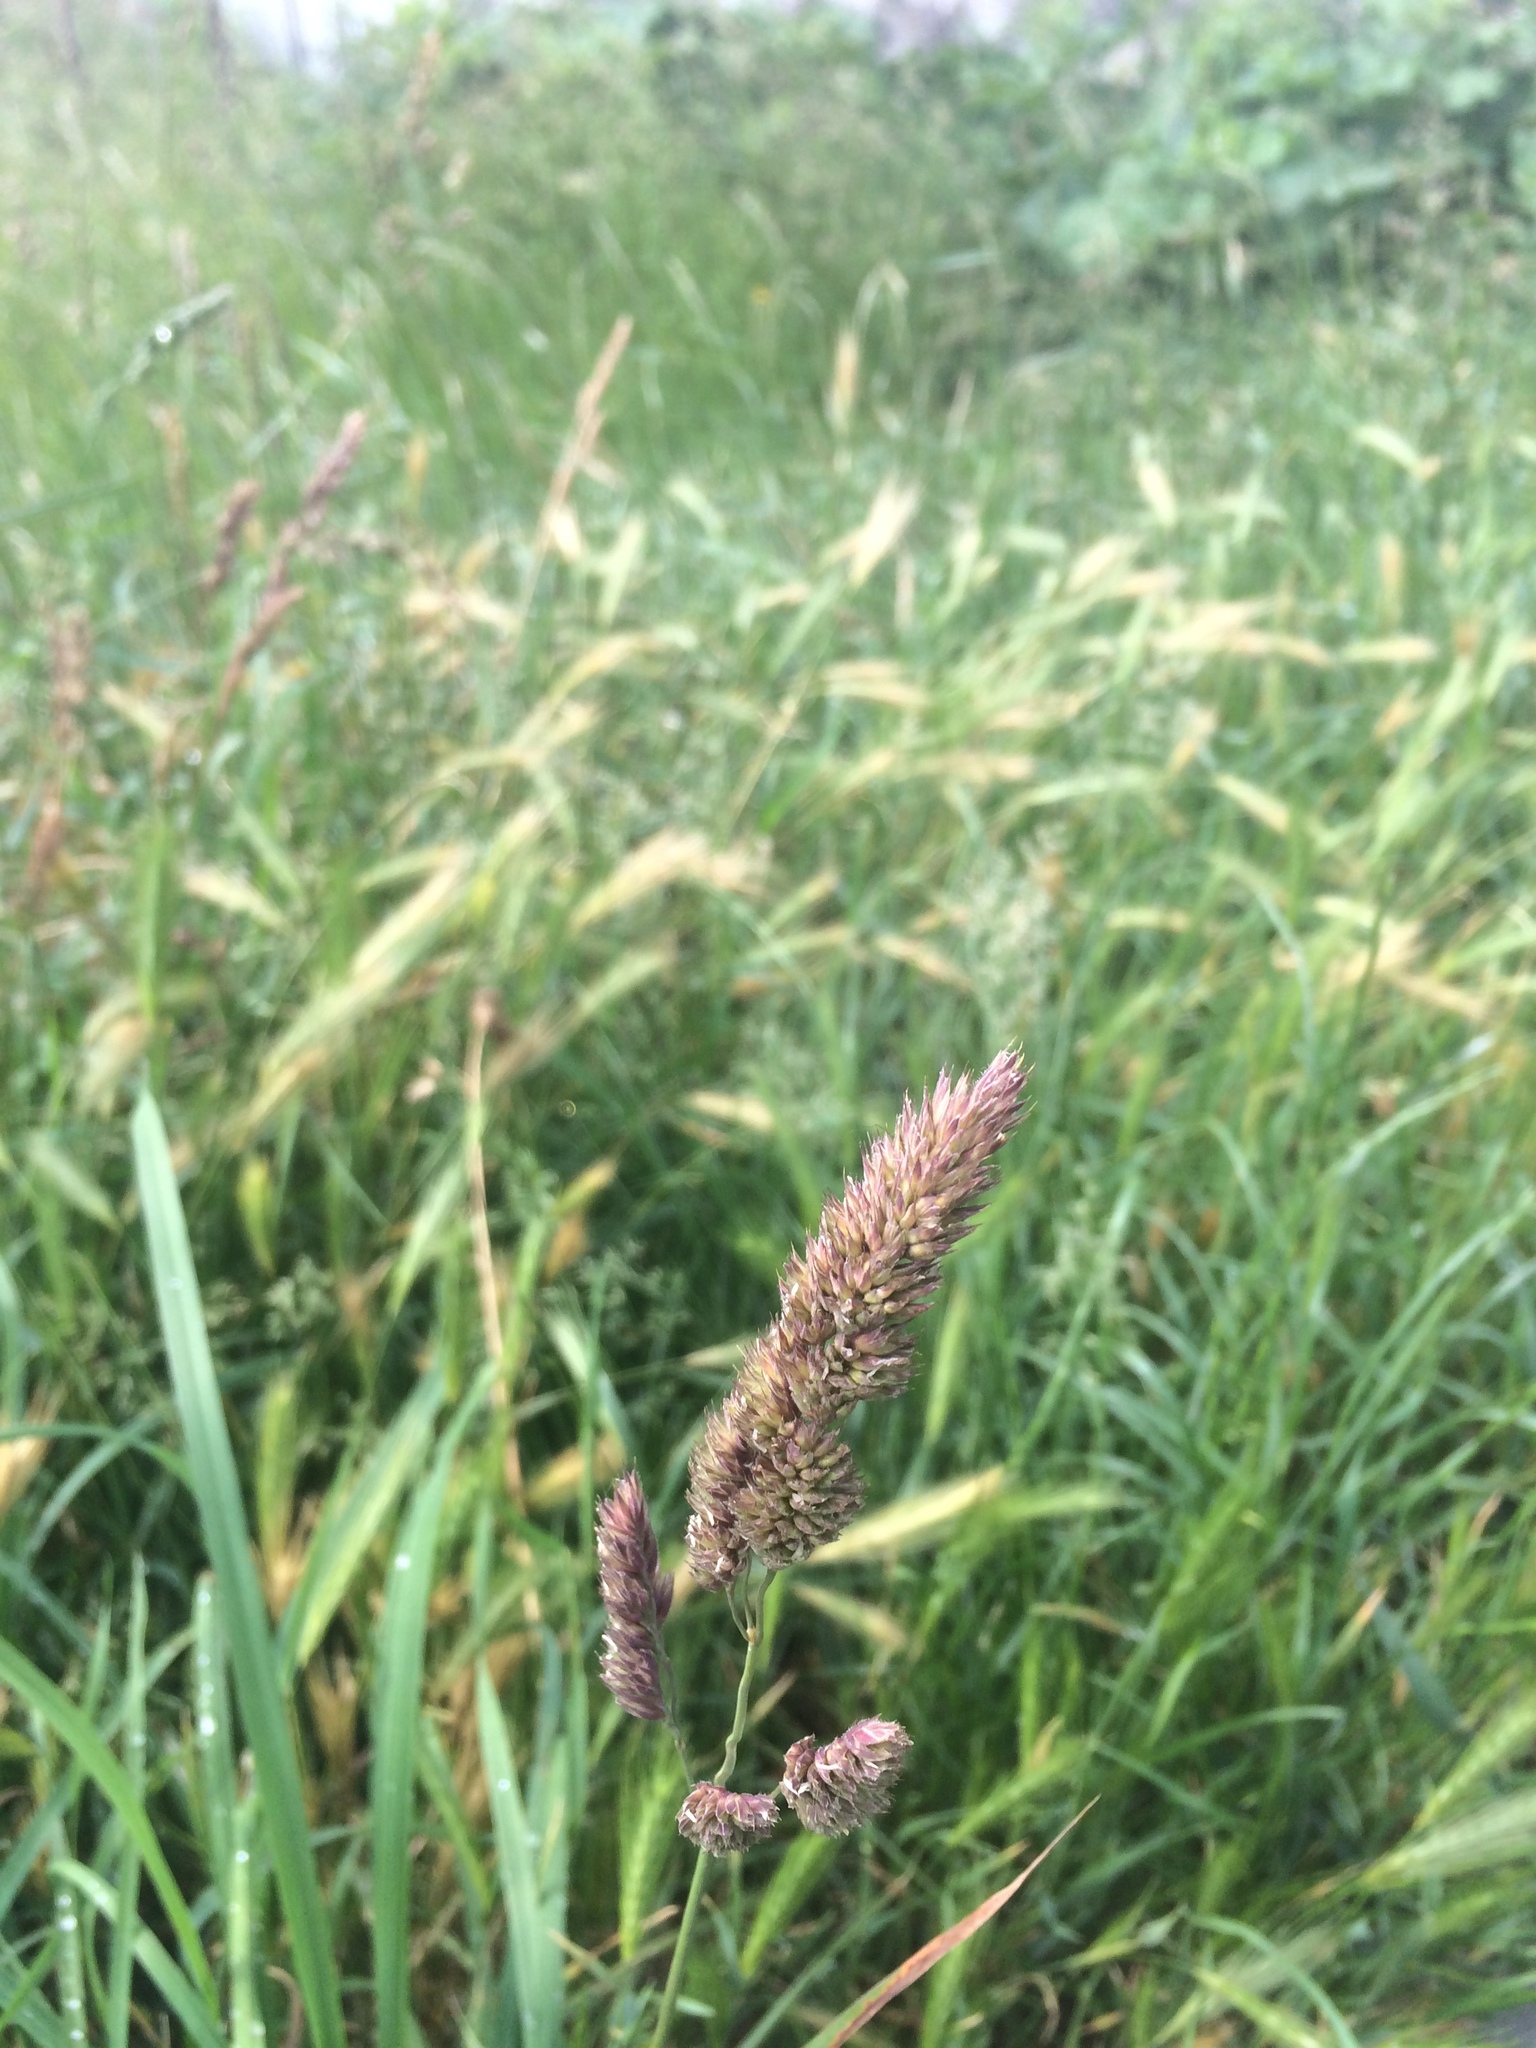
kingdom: Plantae
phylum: Tracheophyta
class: Liliopsida
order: Poales
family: Poaceae
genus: Dactylis
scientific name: Dactylis glomerata
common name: Orchardgrass
